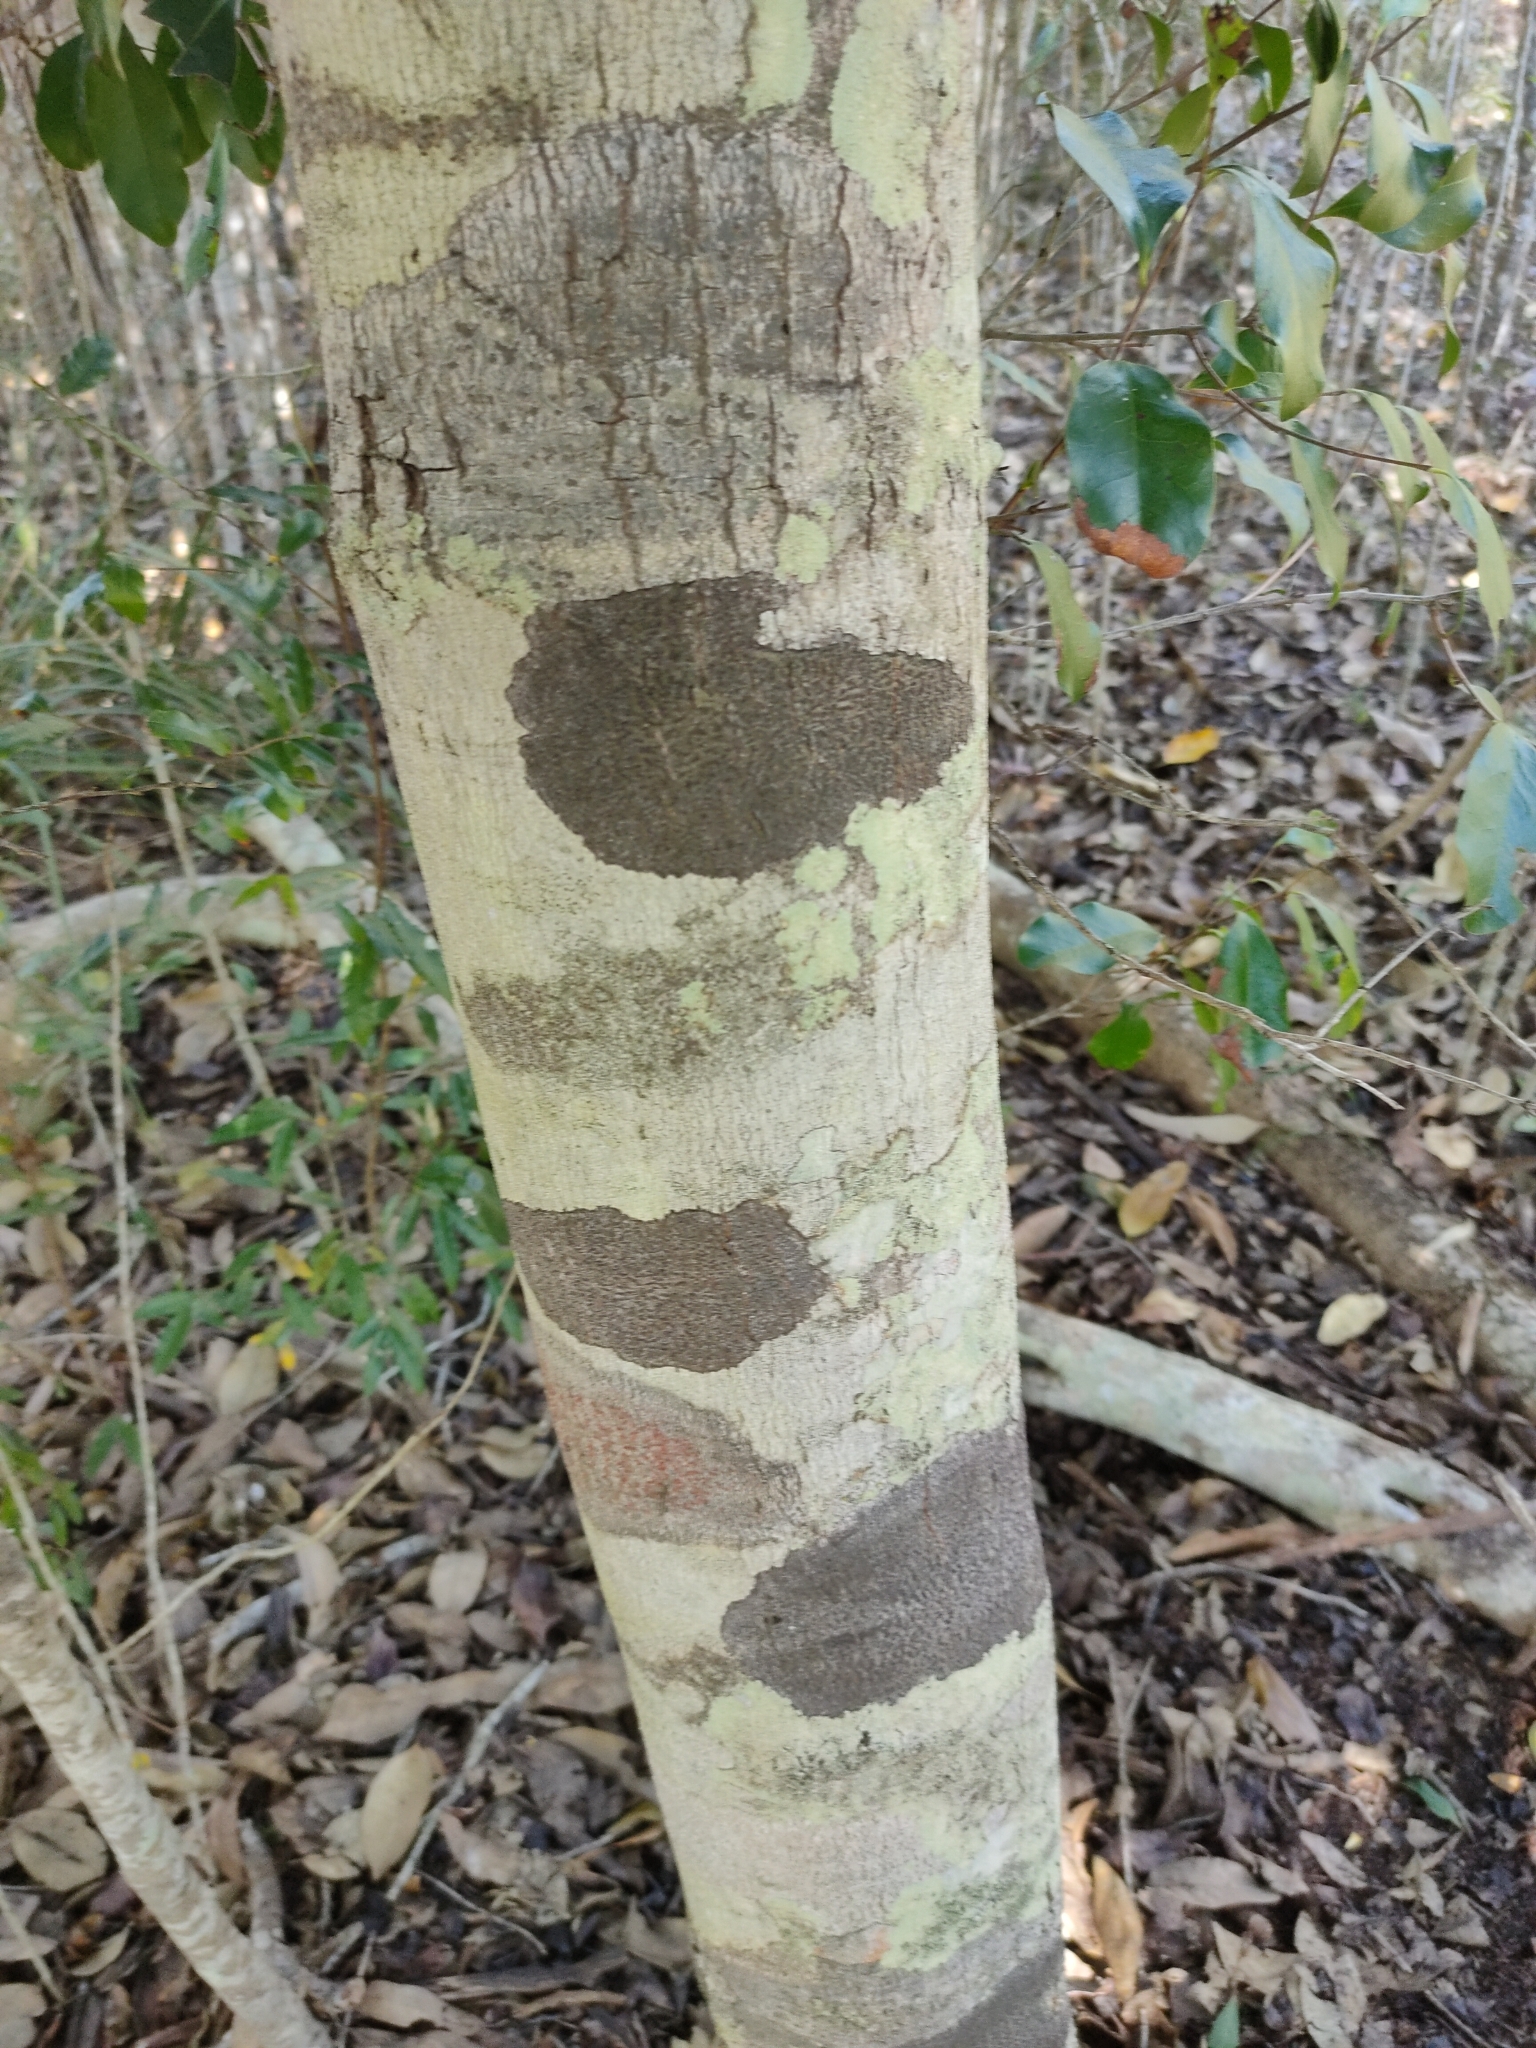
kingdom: Plantae
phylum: Tracheophyta
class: Magnoliopsida
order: Ericales
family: Ebenaceae
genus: Diospyros
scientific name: Diospyros geminata
